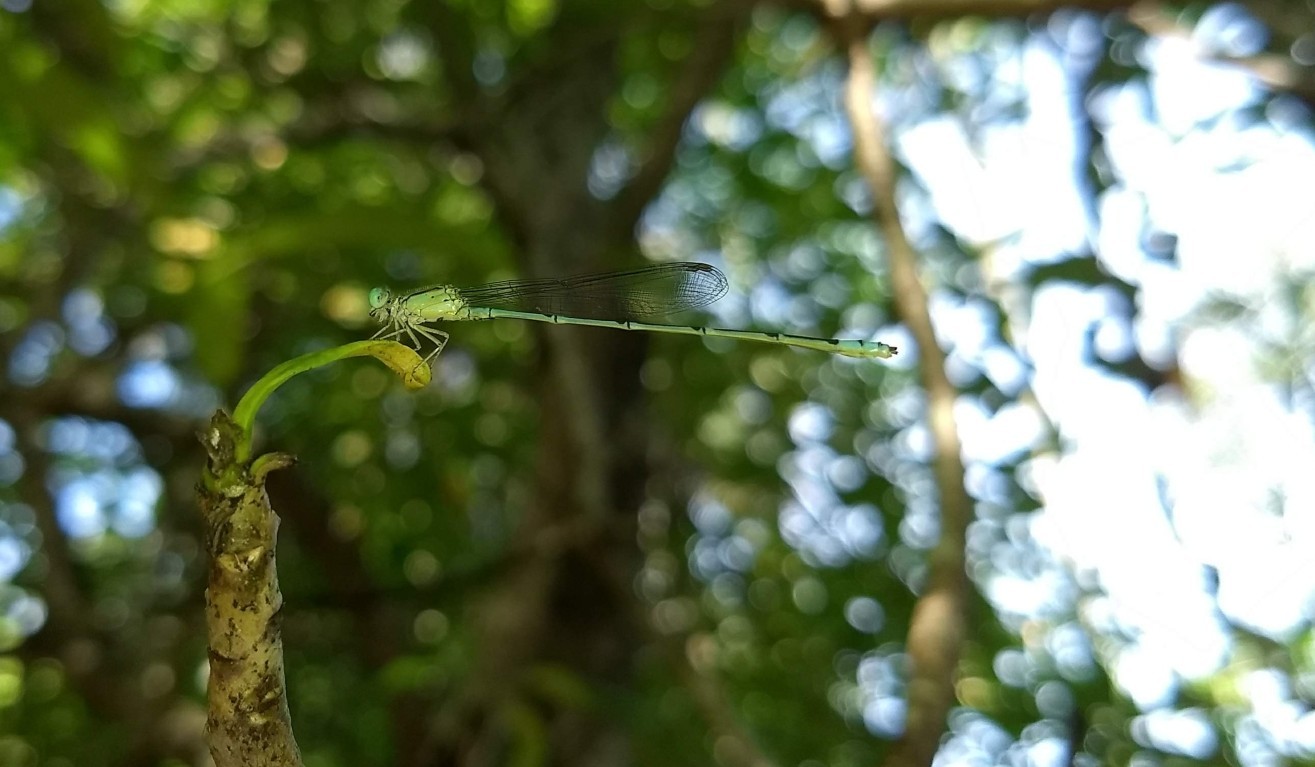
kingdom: Animalia
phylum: Arthropoda
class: Insecta
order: Odonata
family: Coenagrionidae
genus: Pseudagrion
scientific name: Pseudagrion microcephalum
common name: Blue riverdamsel
